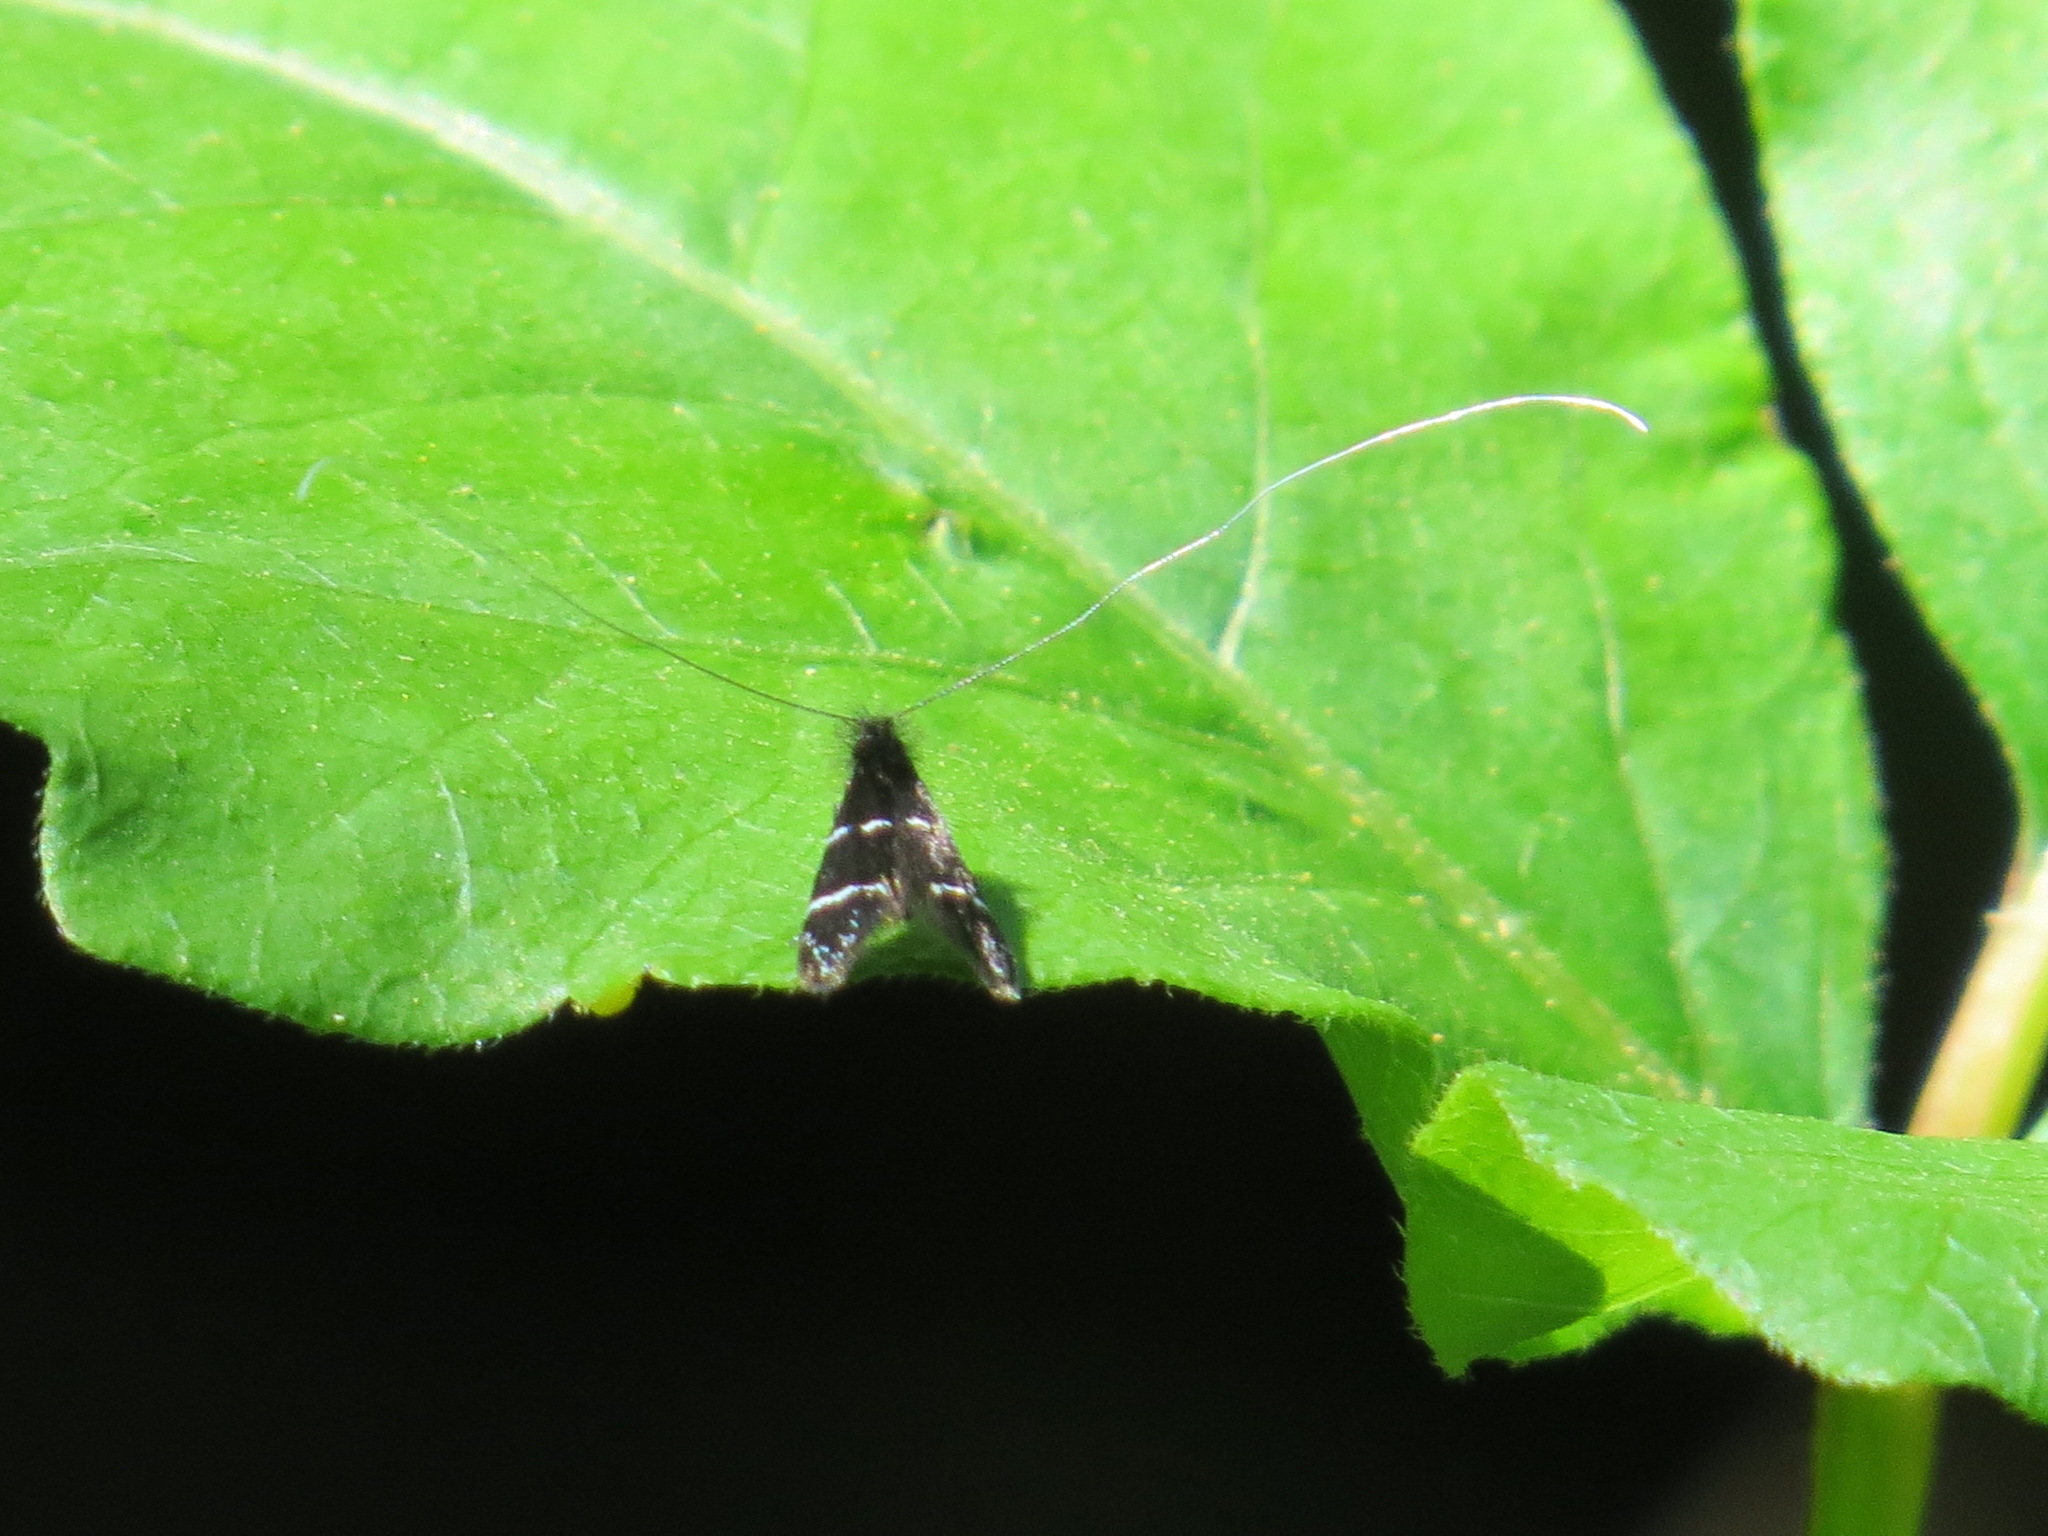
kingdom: Animalia
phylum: Arthropoda
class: Insecta
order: Lepidoptera
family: Adelidae
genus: Adela
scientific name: Adela septentrionella
